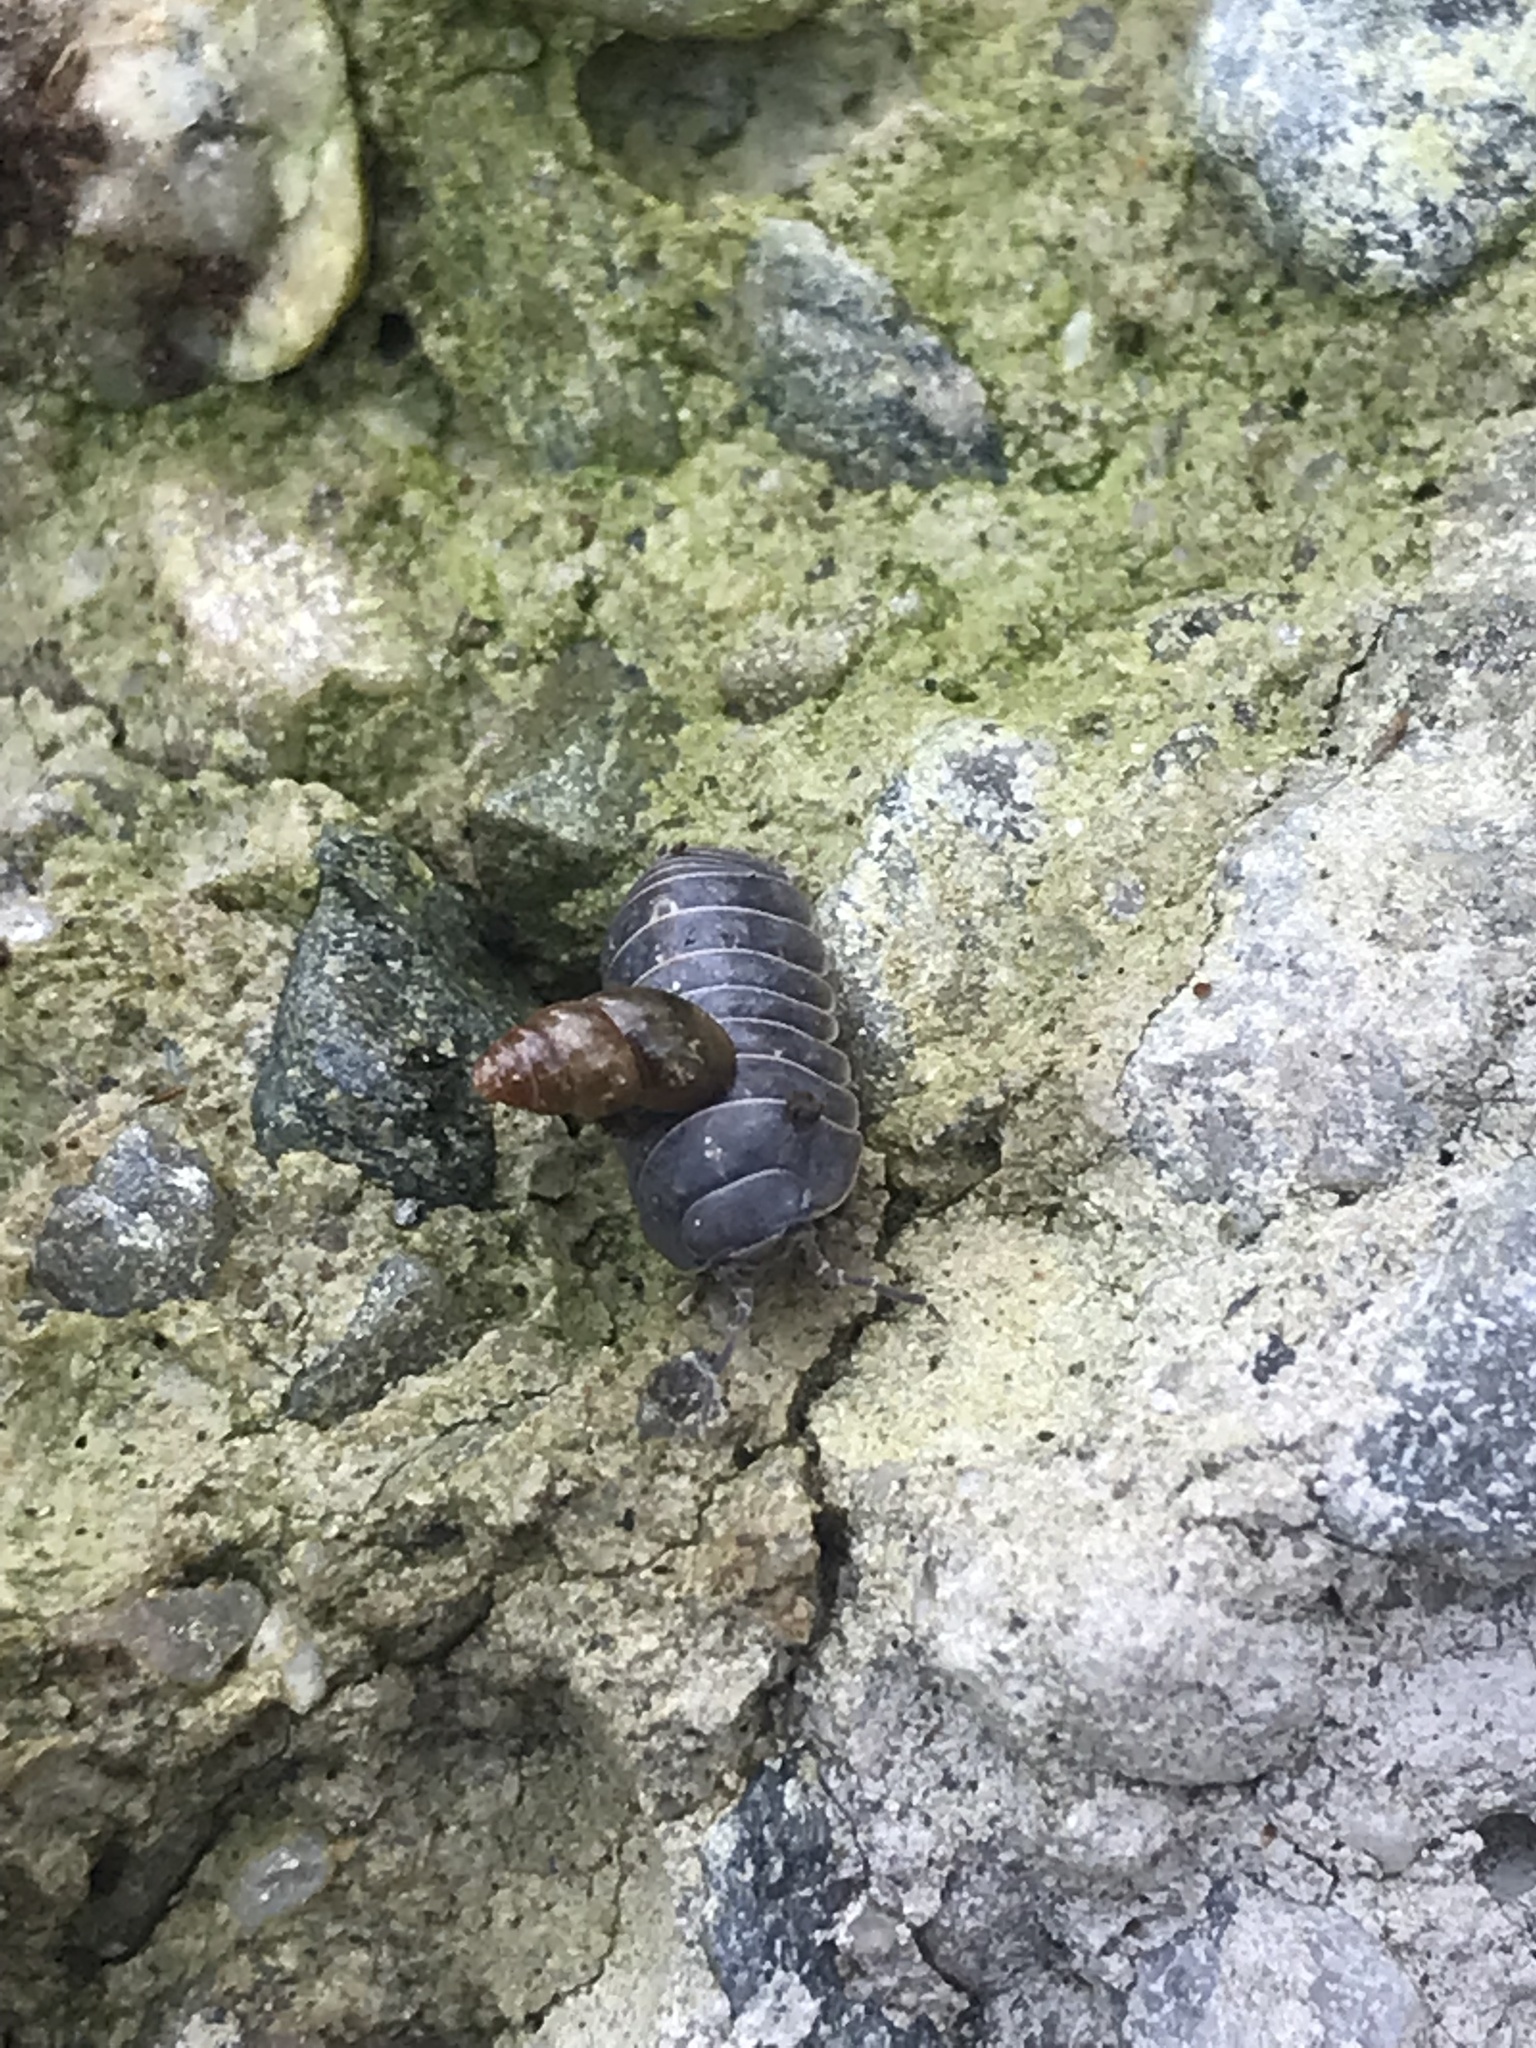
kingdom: Animalia
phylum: Arthropoda
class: Malacostraca
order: Isopoda
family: Armadillidiidae
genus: Armadillidium
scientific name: Armadillidium vulgare
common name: Common pill woodlouse
